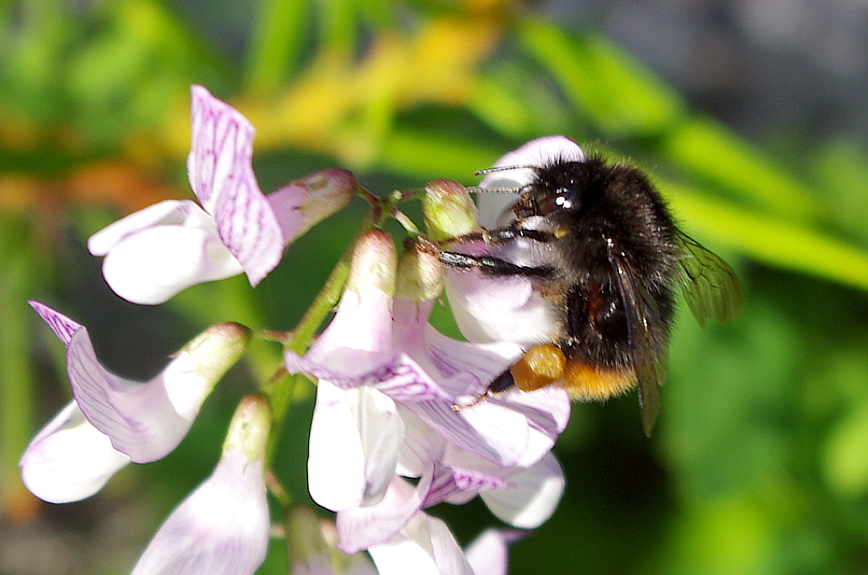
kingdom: Animalia
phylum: Arthropoda
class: Insecta
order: Hymenoptera
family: Apidae
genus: Bombus
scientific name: Bombus wurflenii
